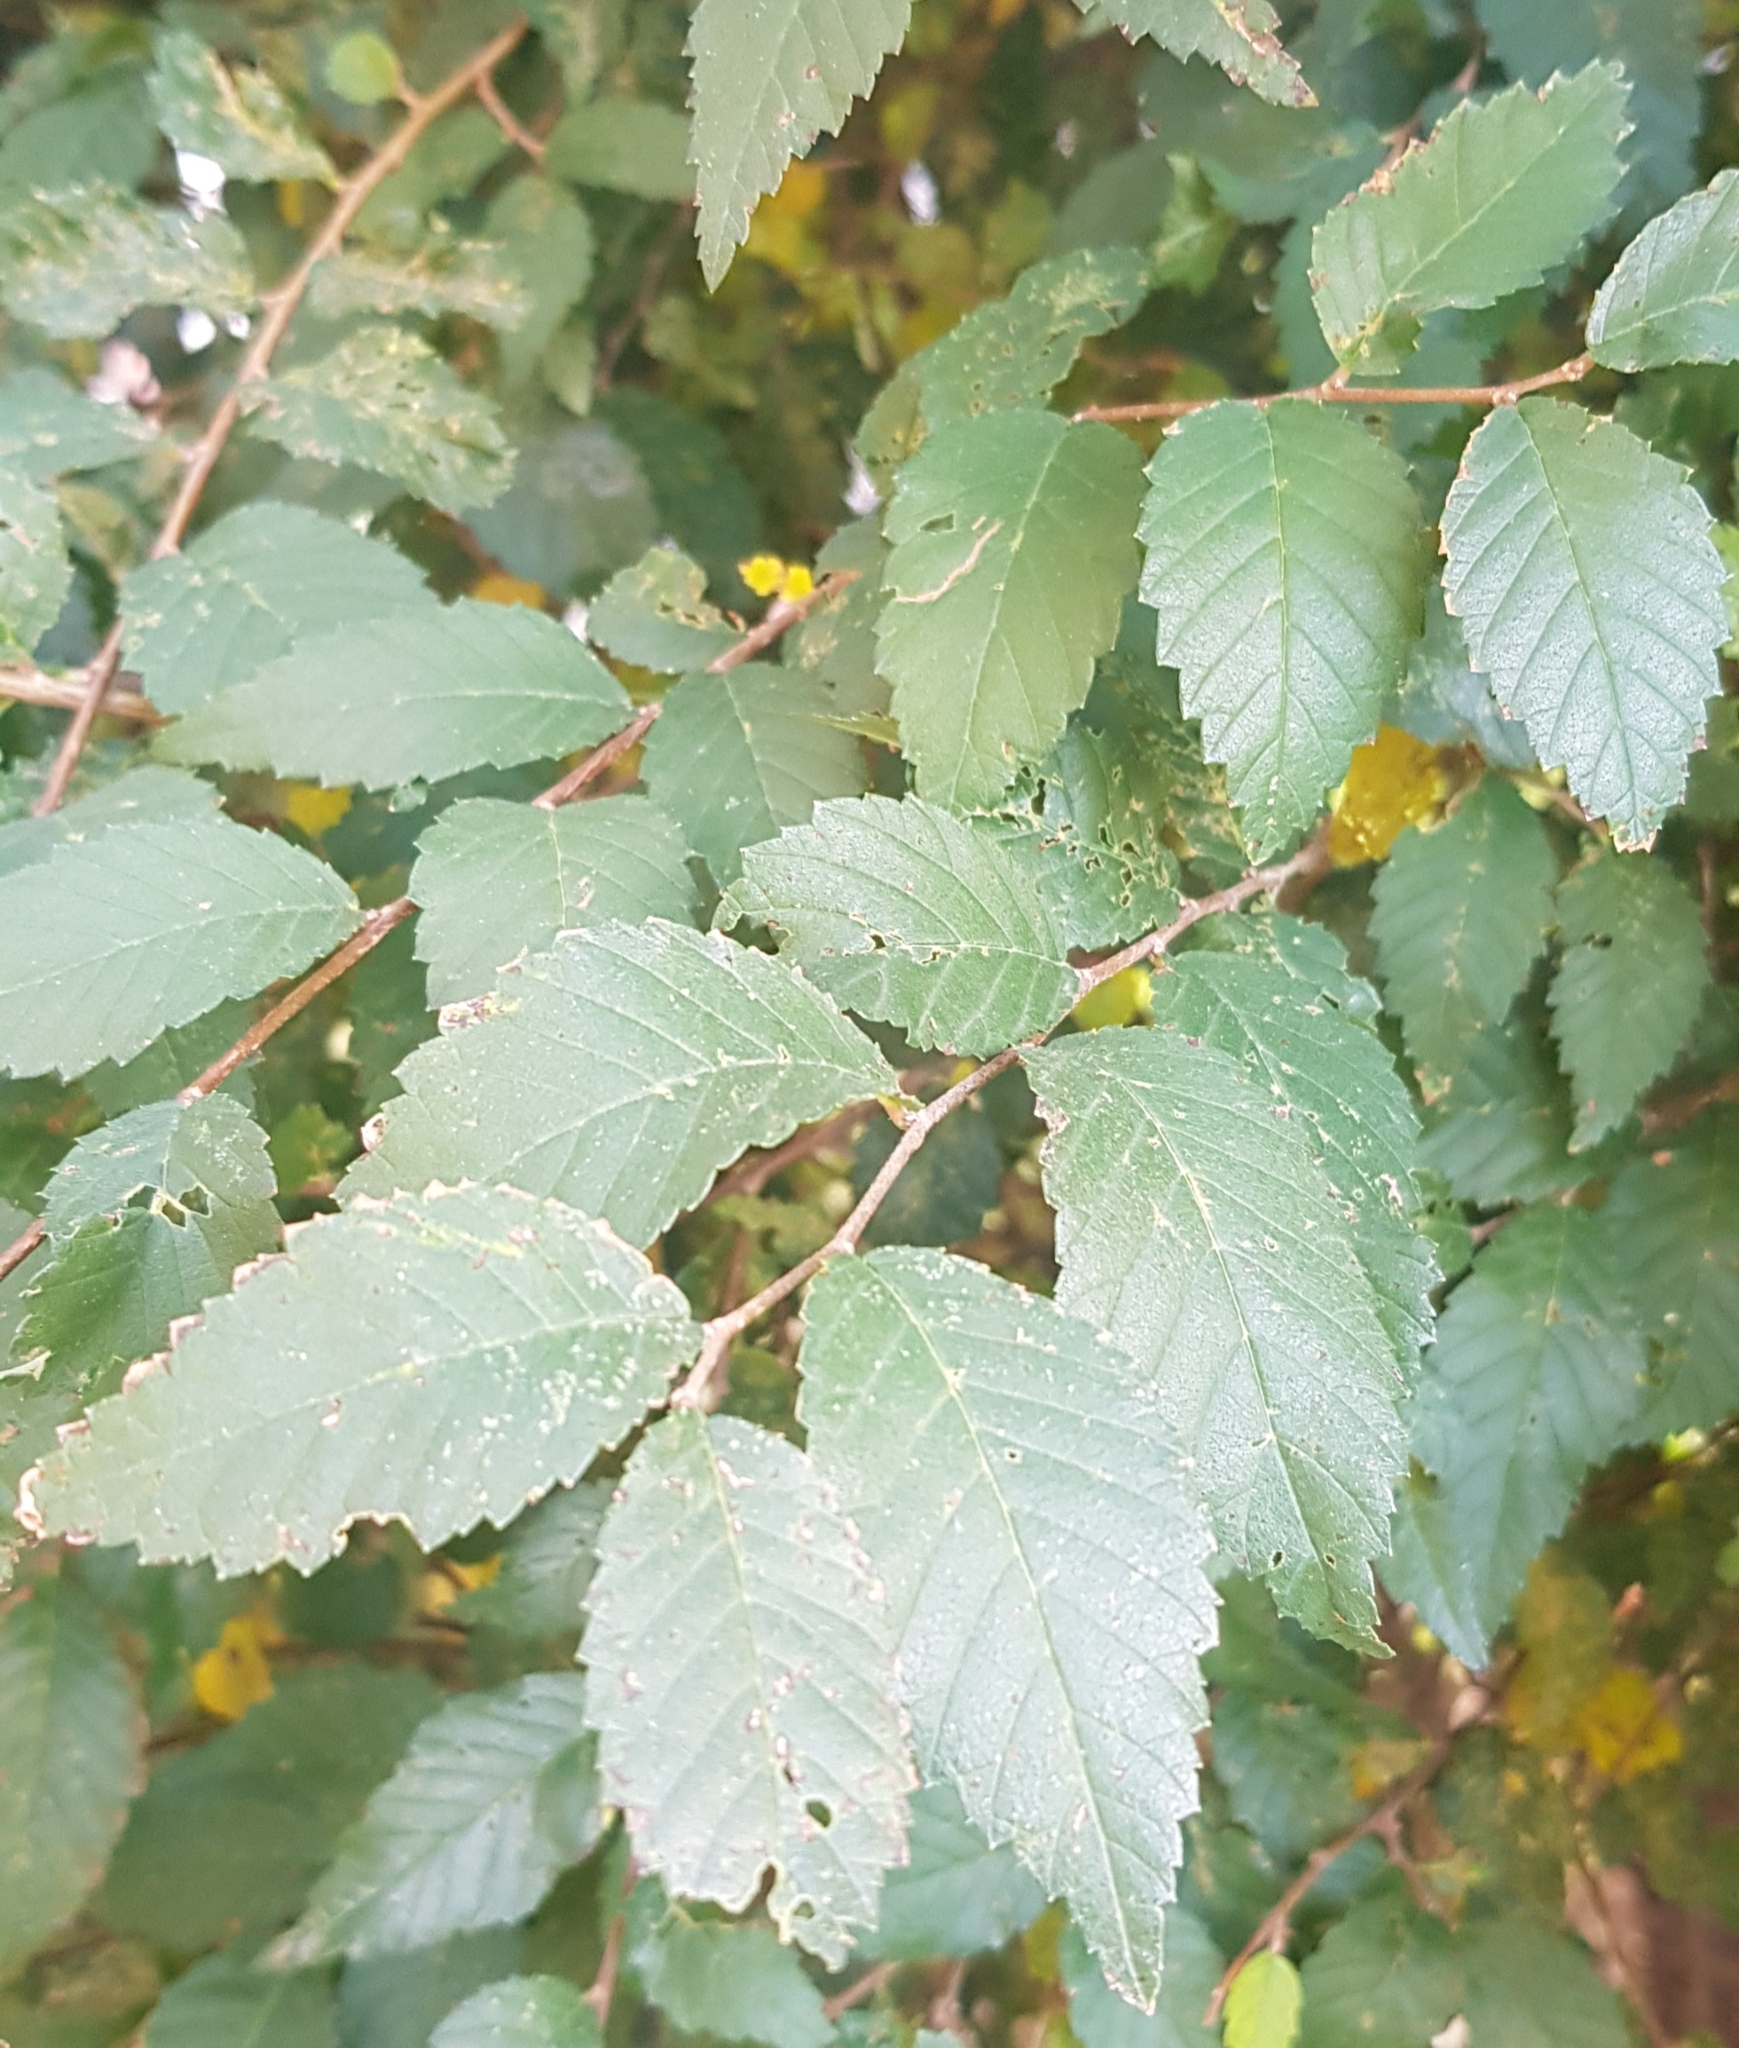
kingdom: Plantae
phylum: Tracheophyta
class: Magnoliopsida
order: Rosales
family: Ulmaceae
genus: Ulmus
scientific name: Ulmus pumila
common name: Siberian elm
